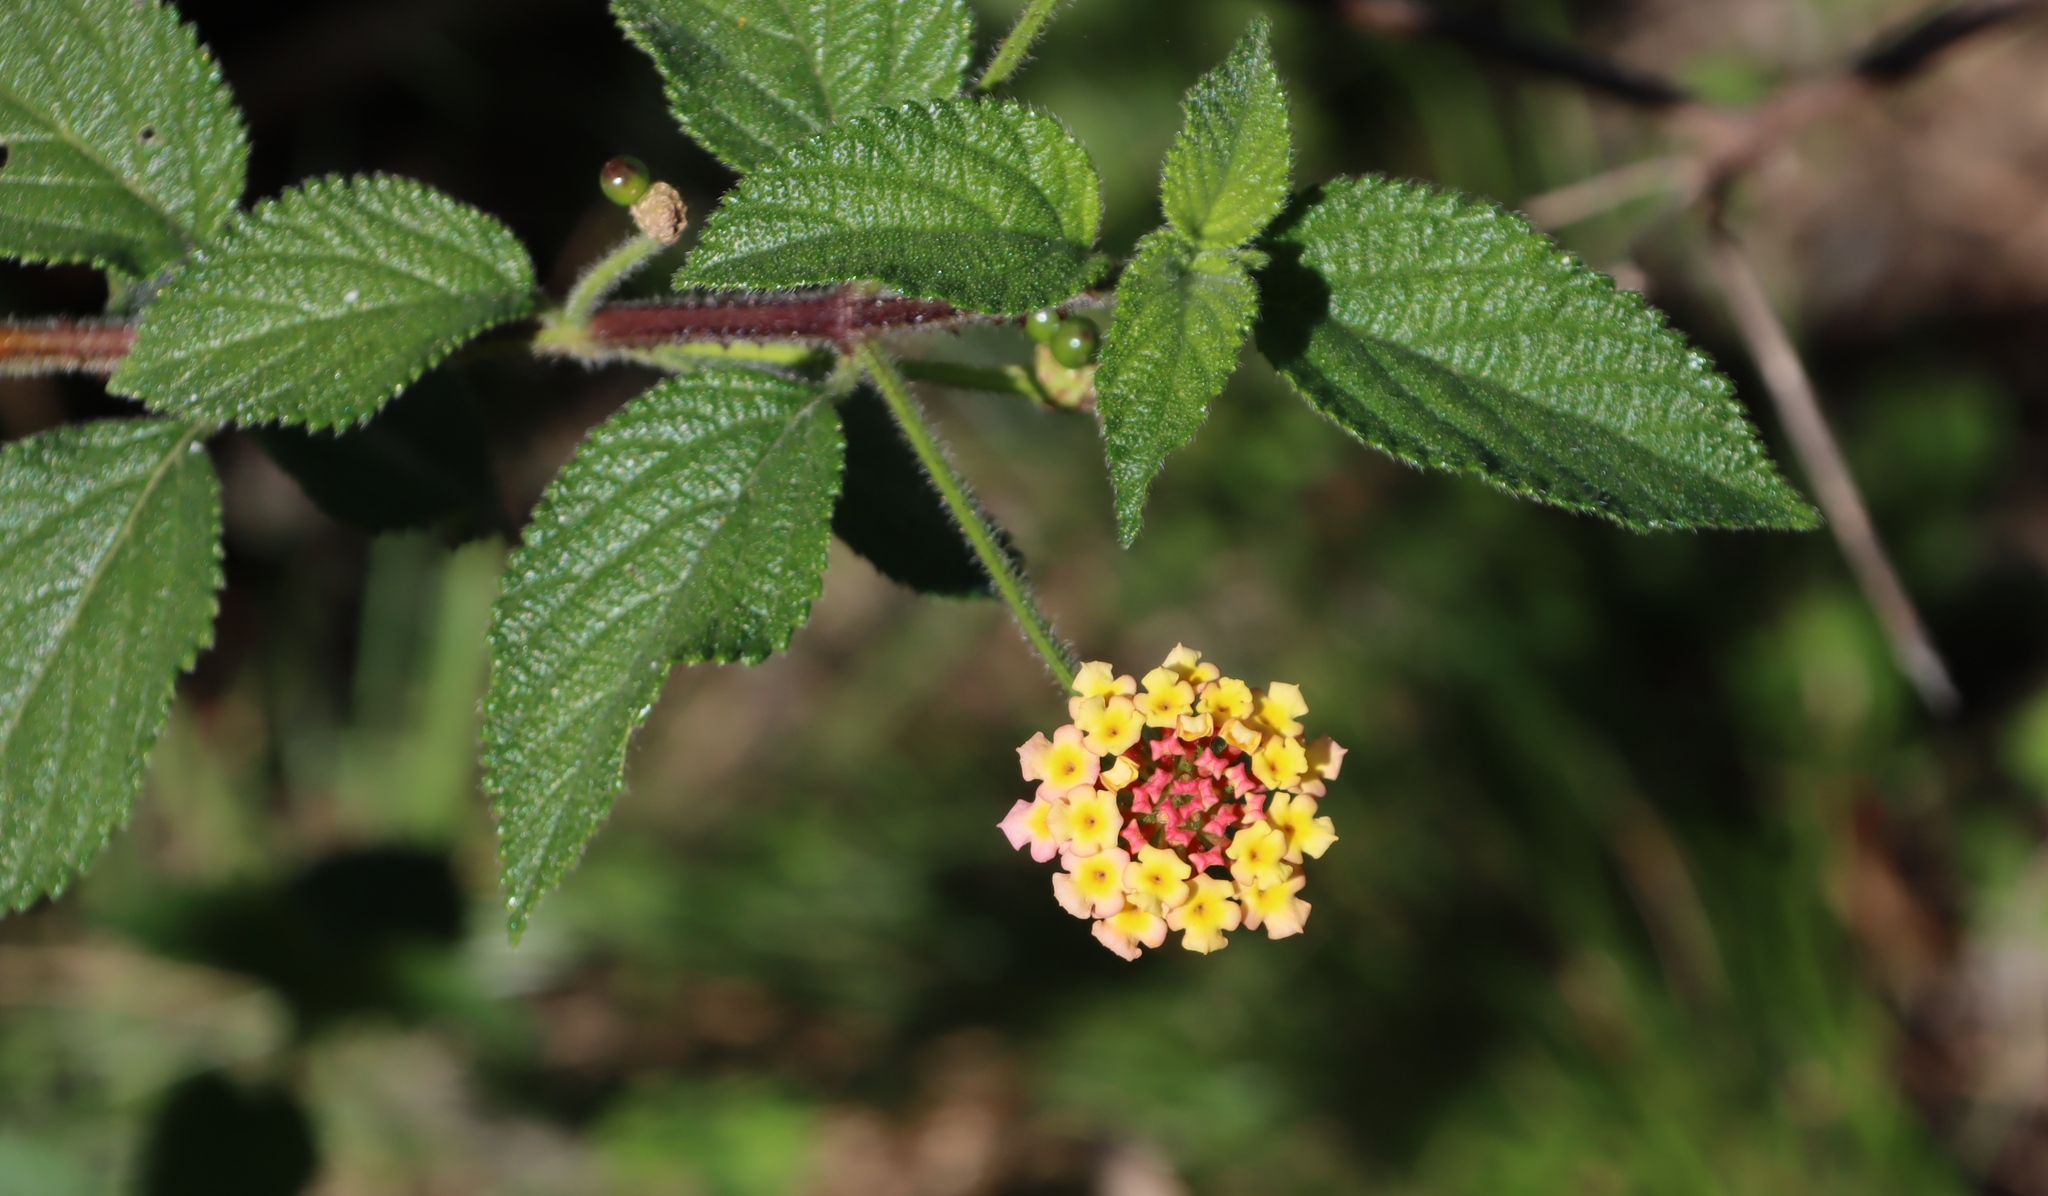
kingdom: Plantae
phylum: Tracheophyta
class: Magnoliopsida
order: Lamiales
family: Verbenaceae
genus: Lantana
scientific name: Lantana camara
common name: Lantana
